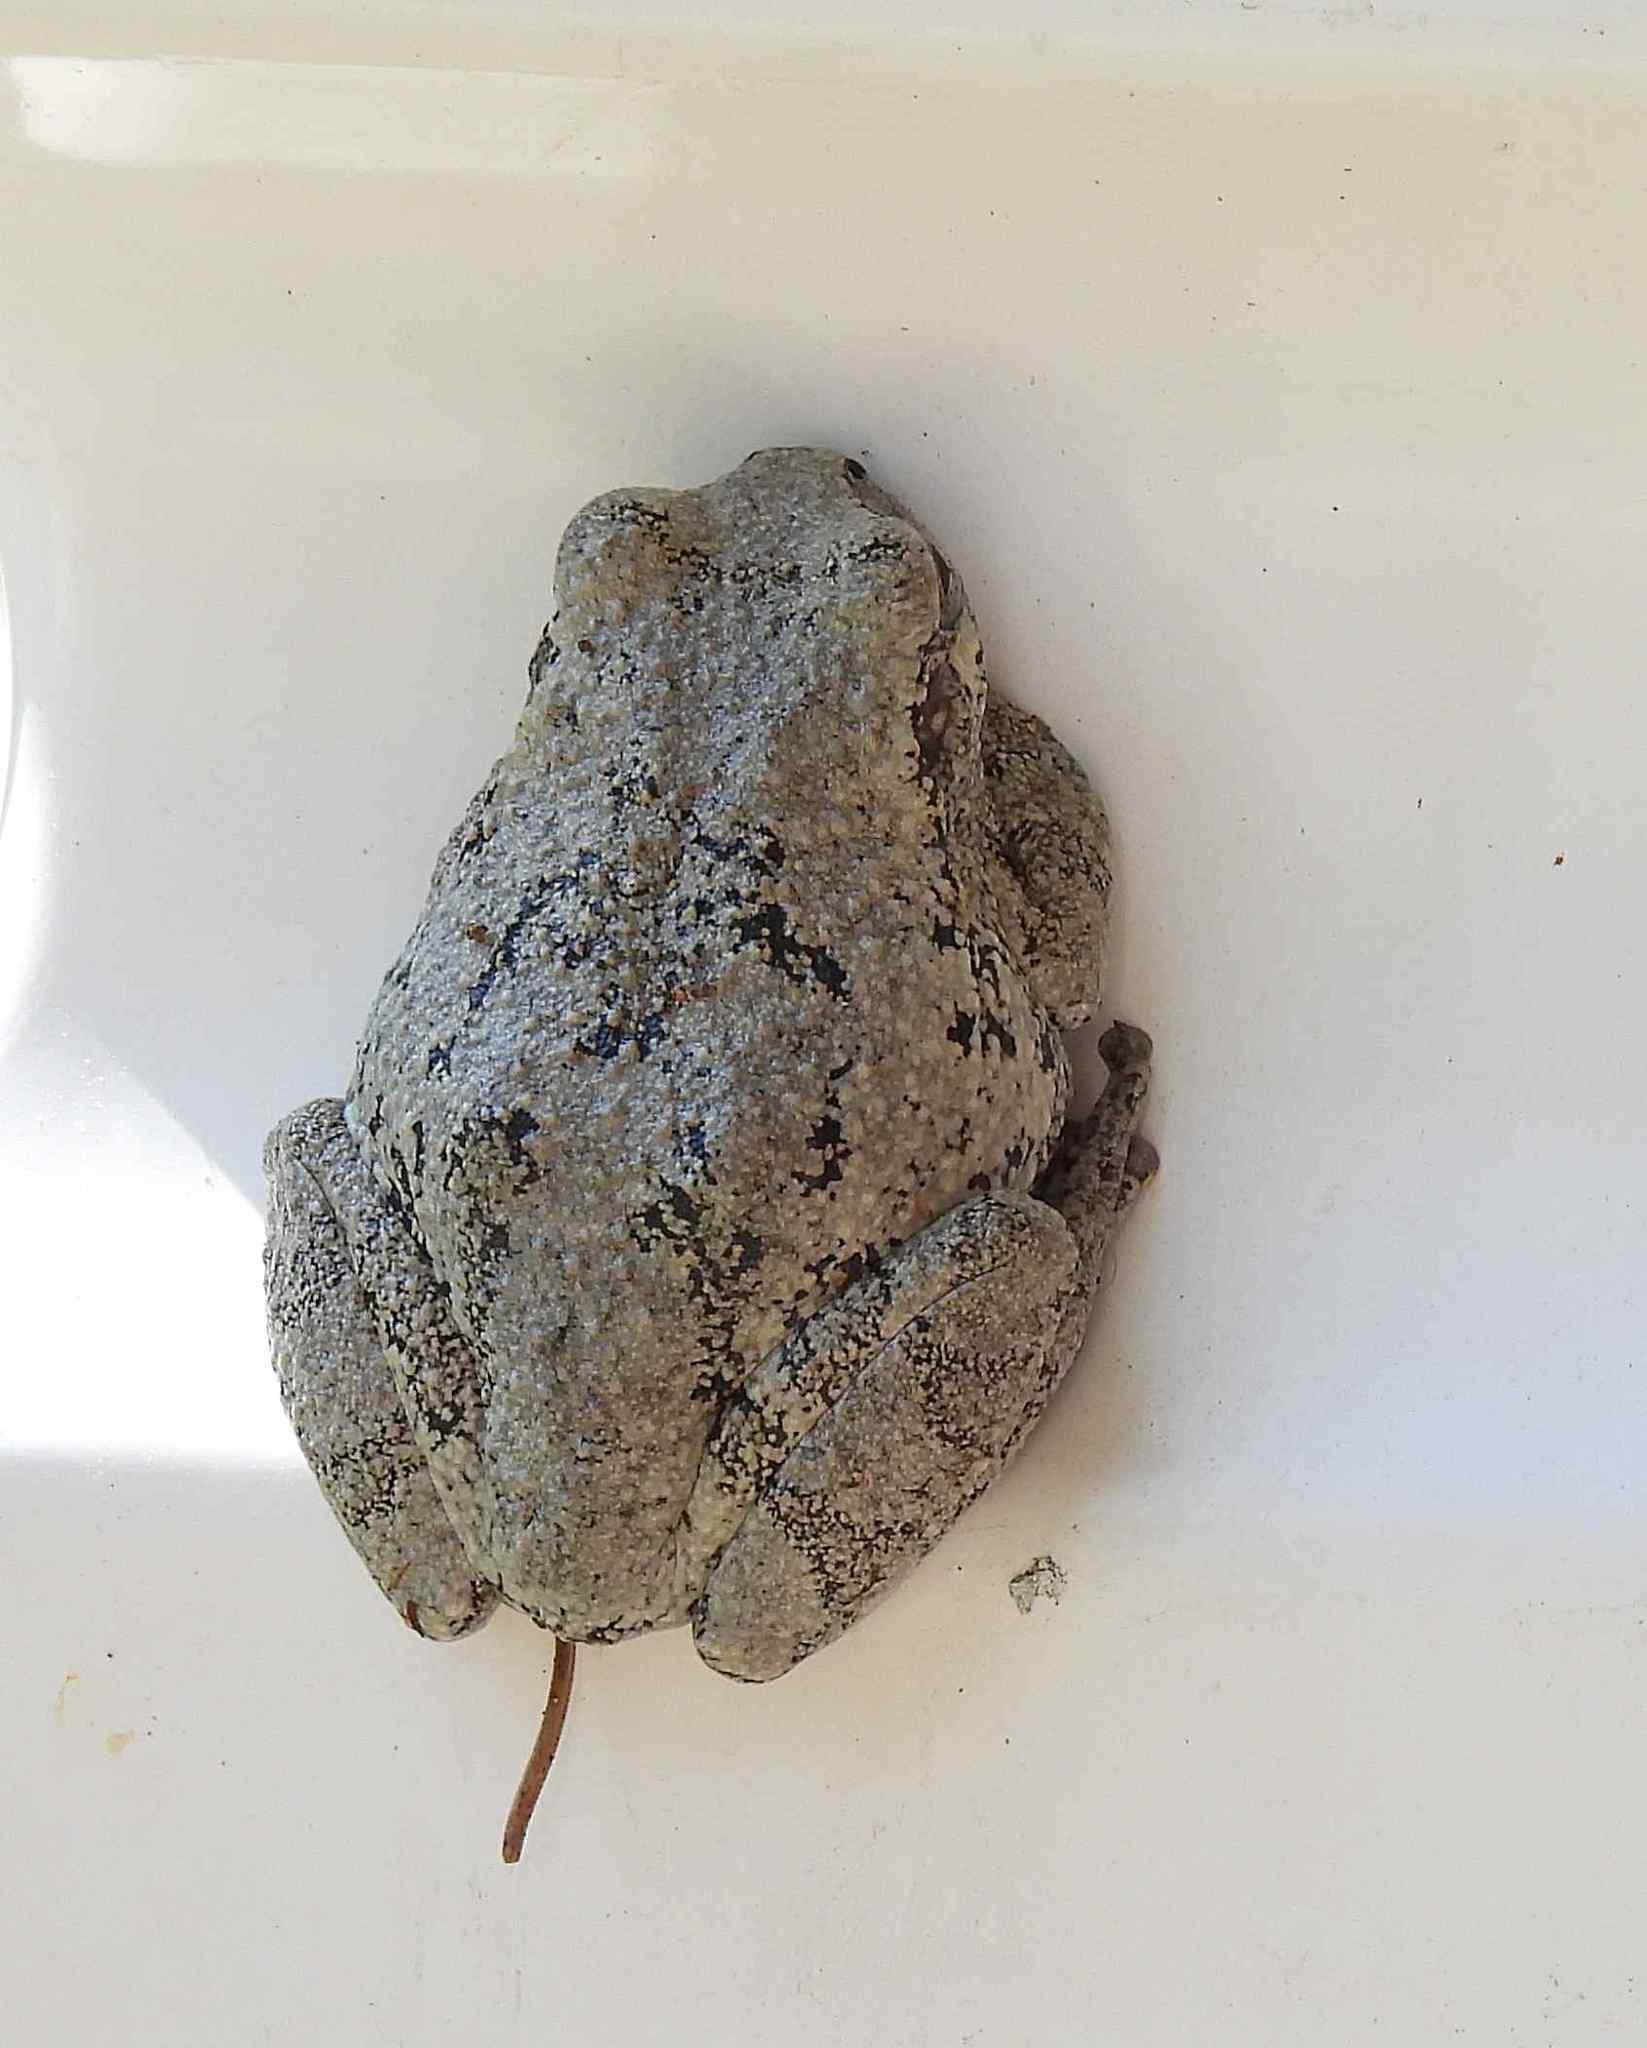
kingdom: Animalia
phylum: Chordata
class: Amphibia
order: Anura
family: Hylidae
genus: Dryophytes
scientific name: Dryophytes chrysoscelis
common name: Cope's gray treefrog
